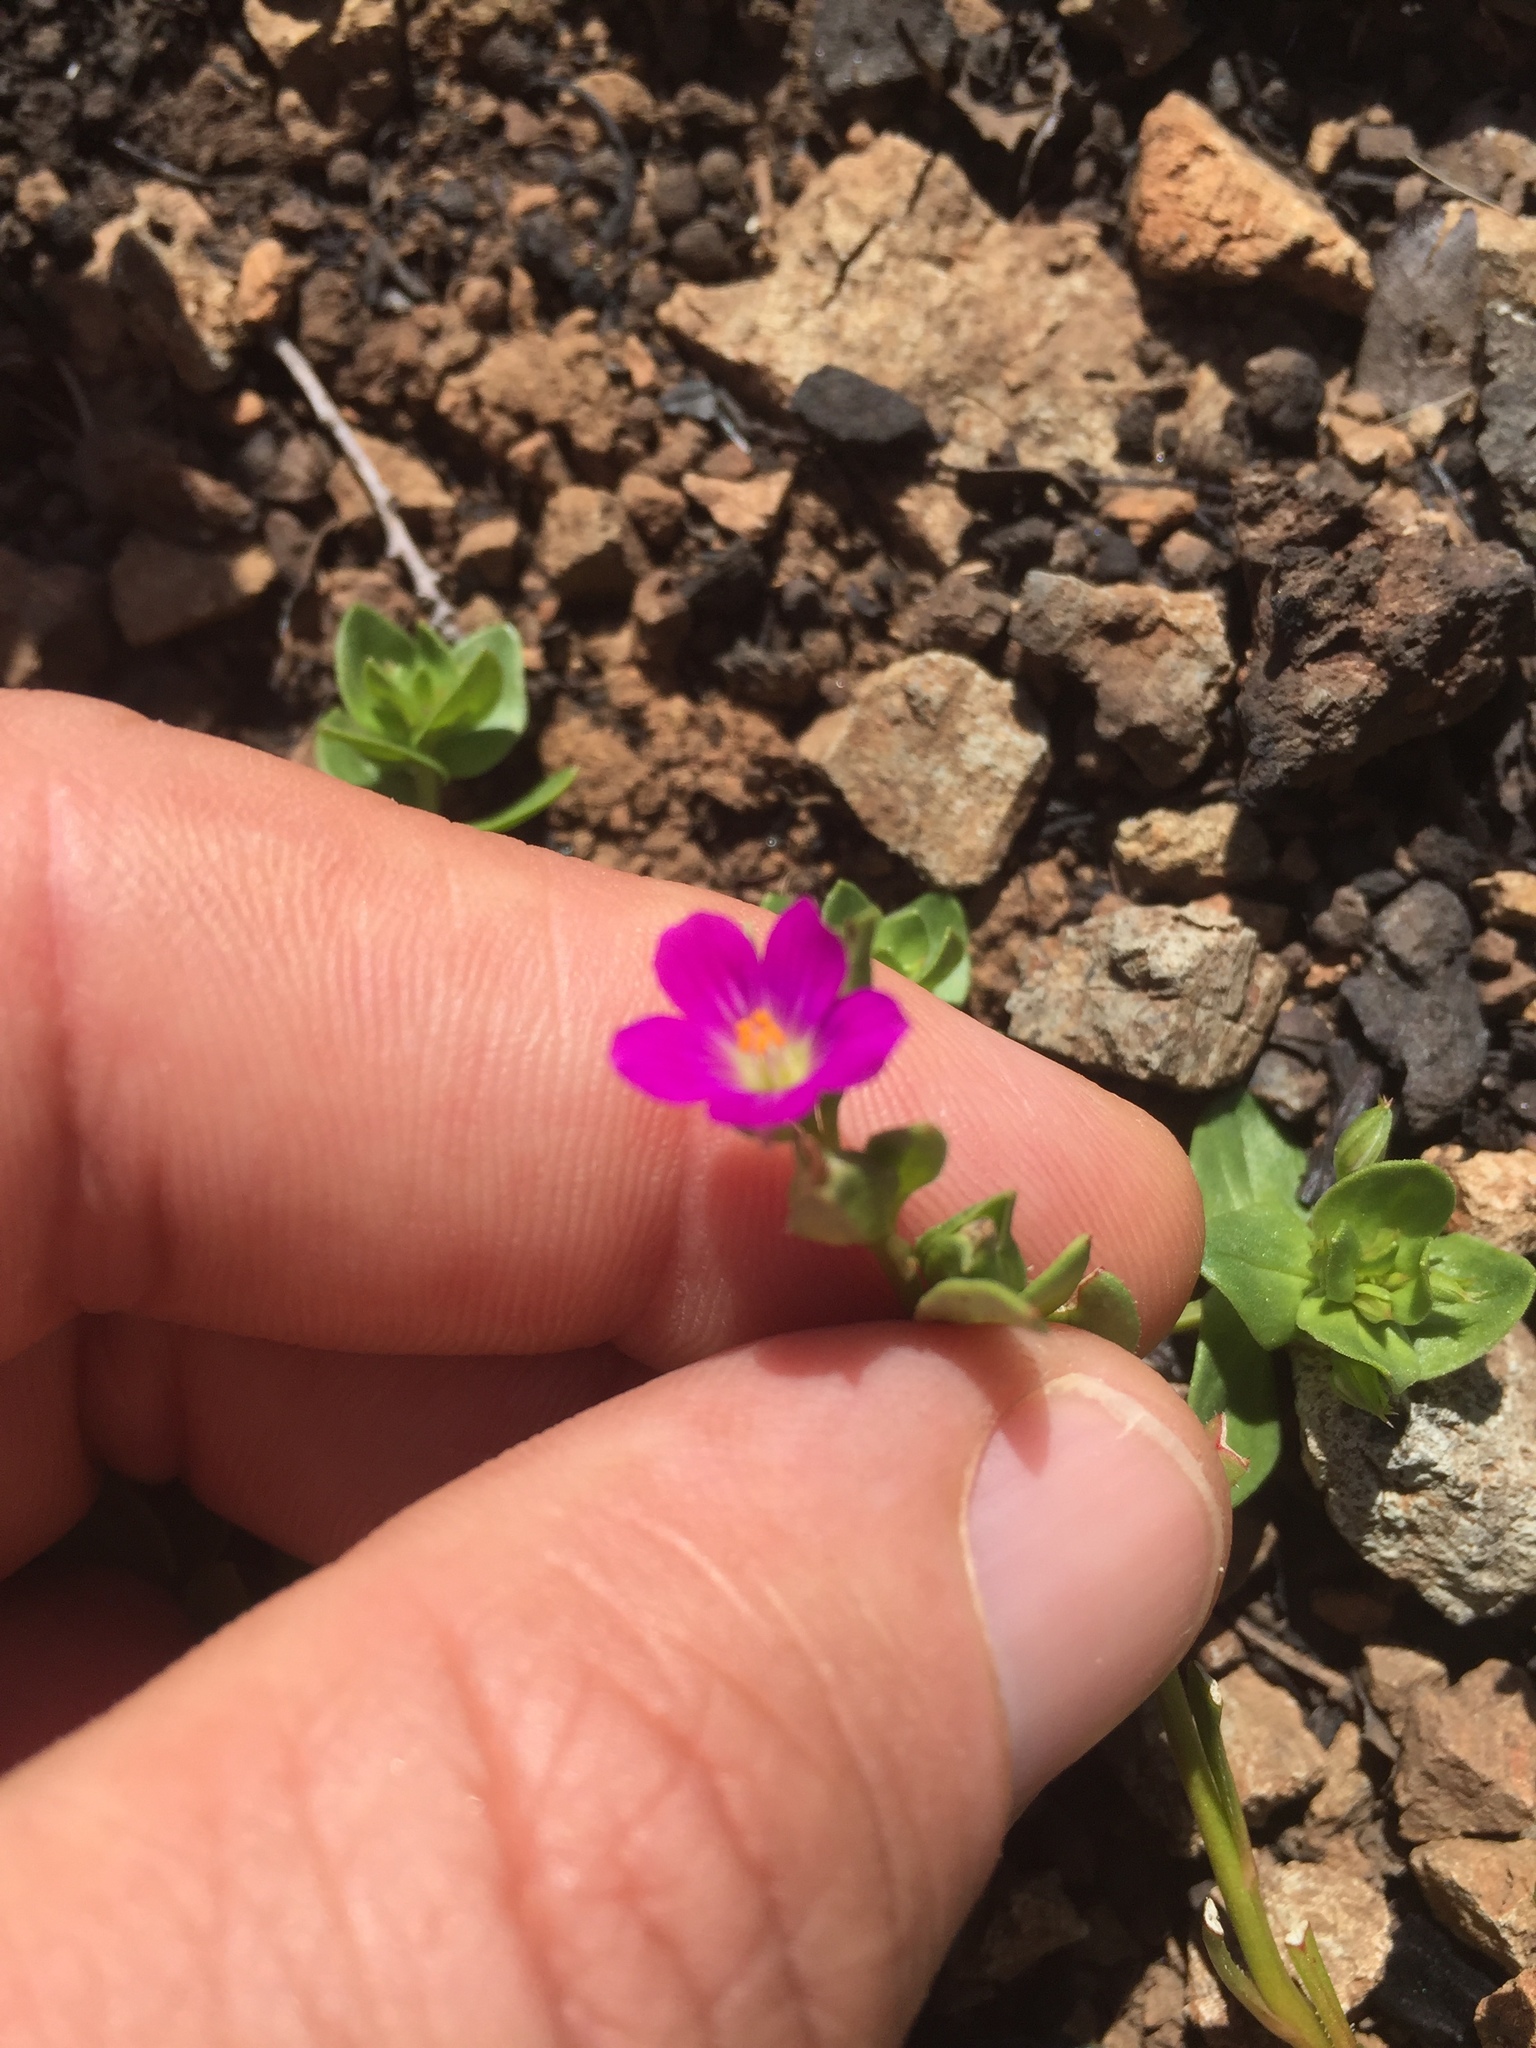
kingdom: Plantae
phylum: Tracheophyta
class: Magnoliopsida
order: Caryophyllales
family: Montiaceae
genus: Calandrinia
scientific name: Calandrinia menziesii
